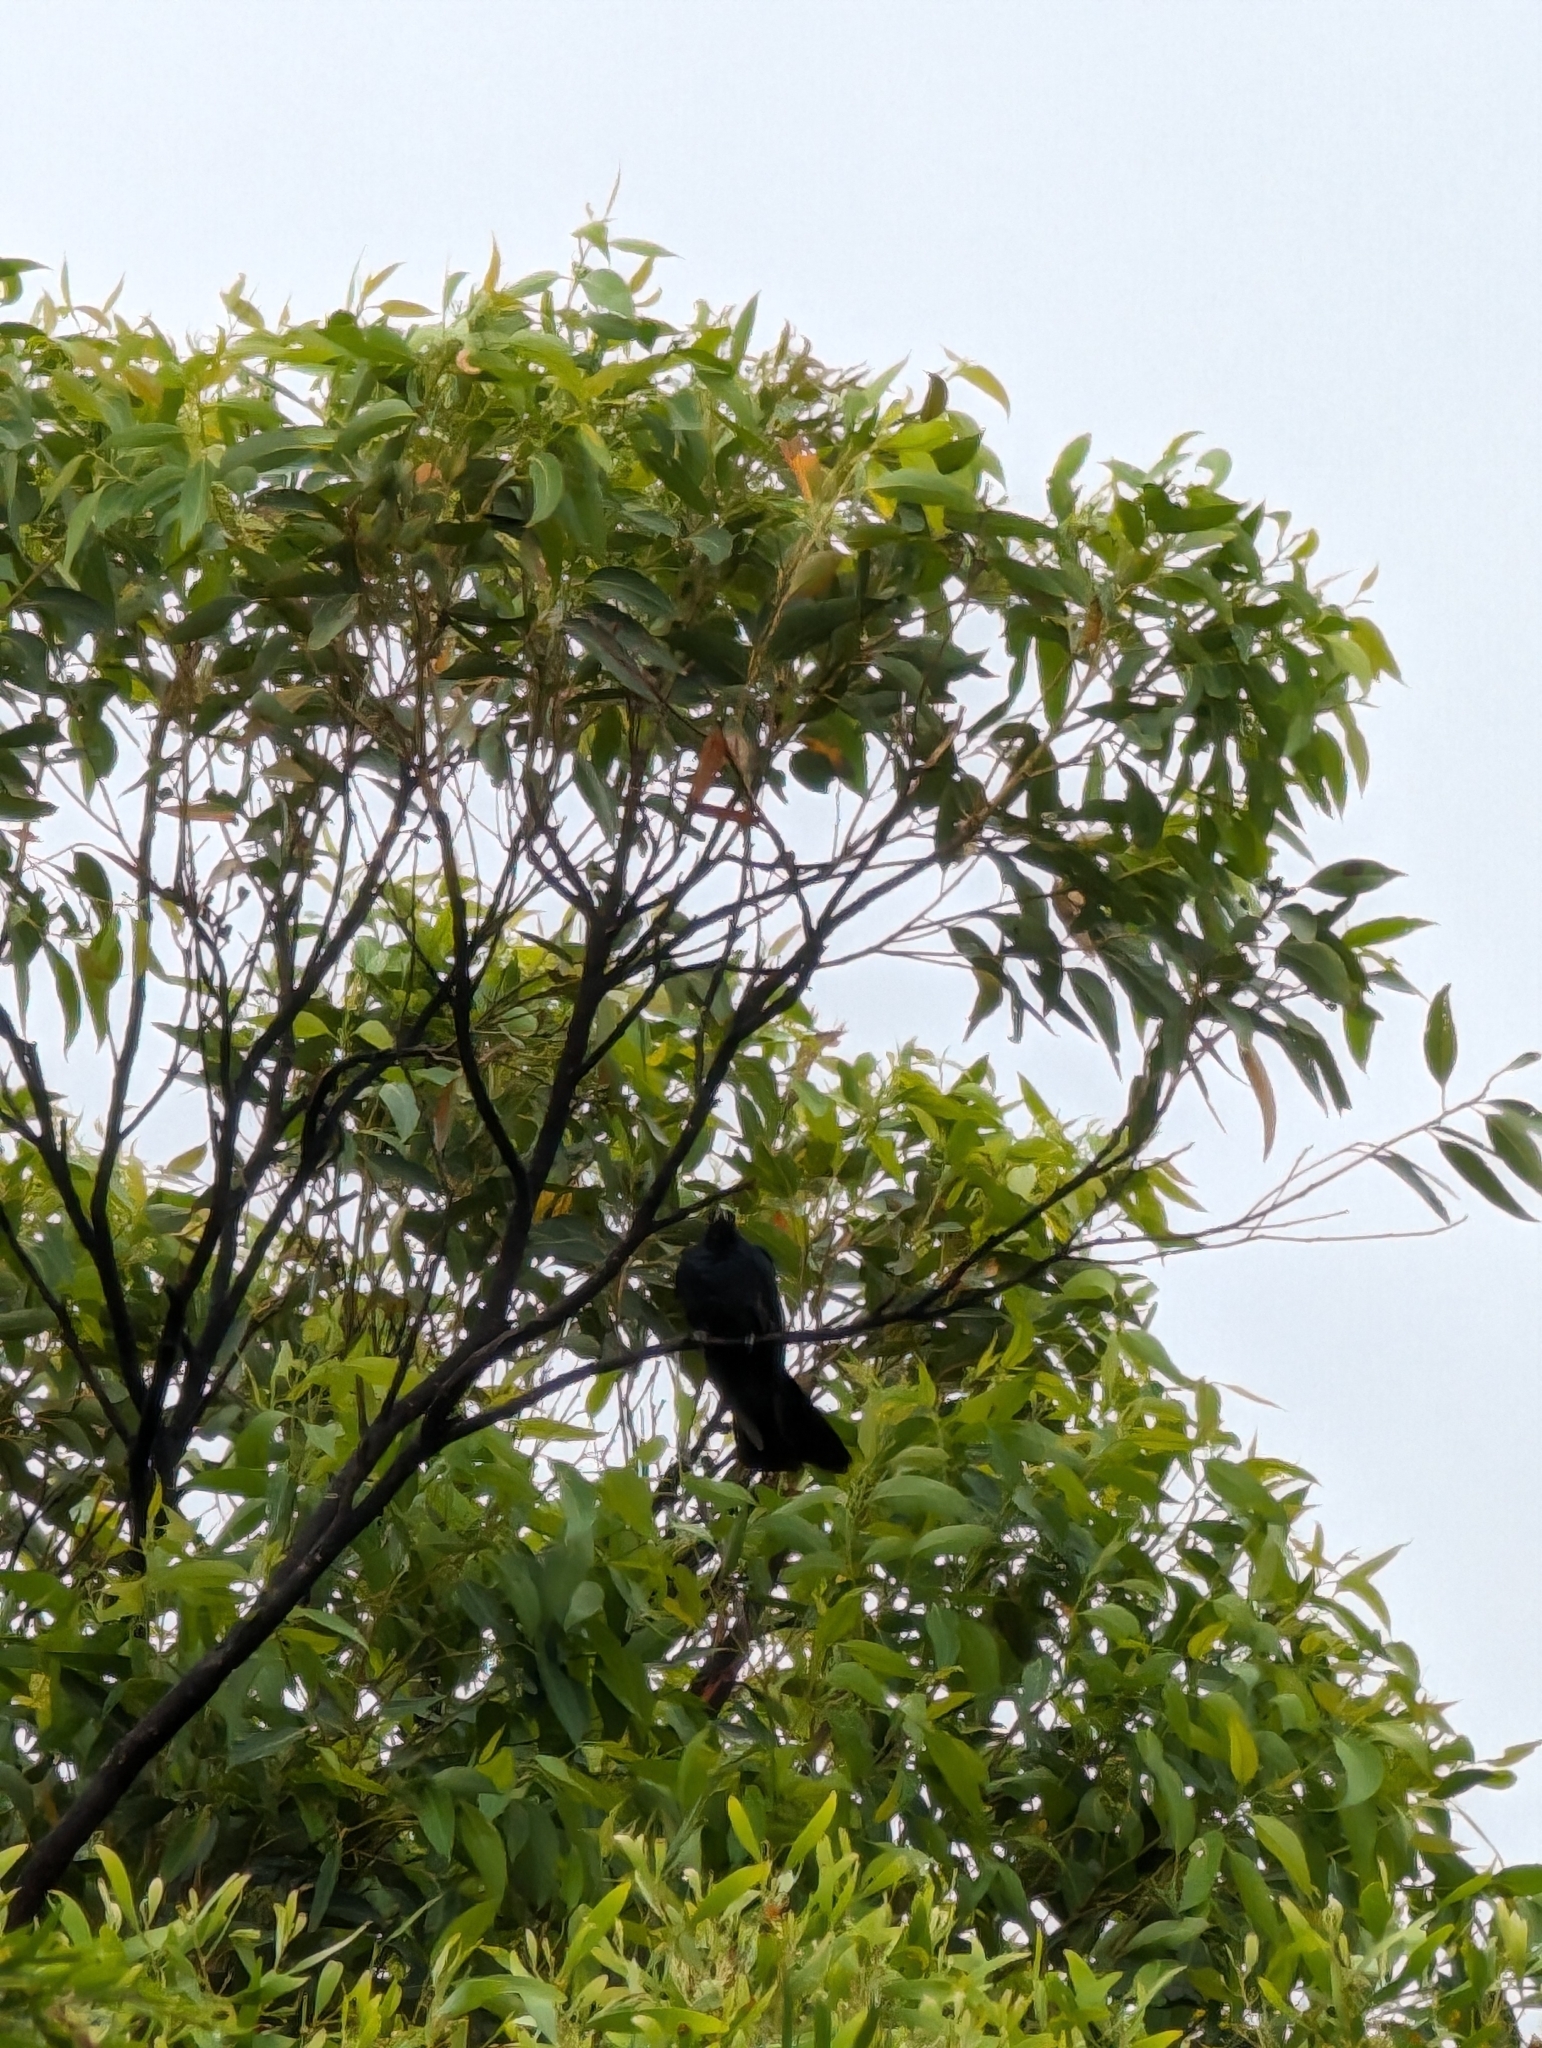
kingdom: Animalia
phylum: Chordata
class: Aves
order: Cuculiformes
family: Cuculidae
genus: Eudynamys
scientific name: Eudynamys orientalis
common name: Pacific koel
